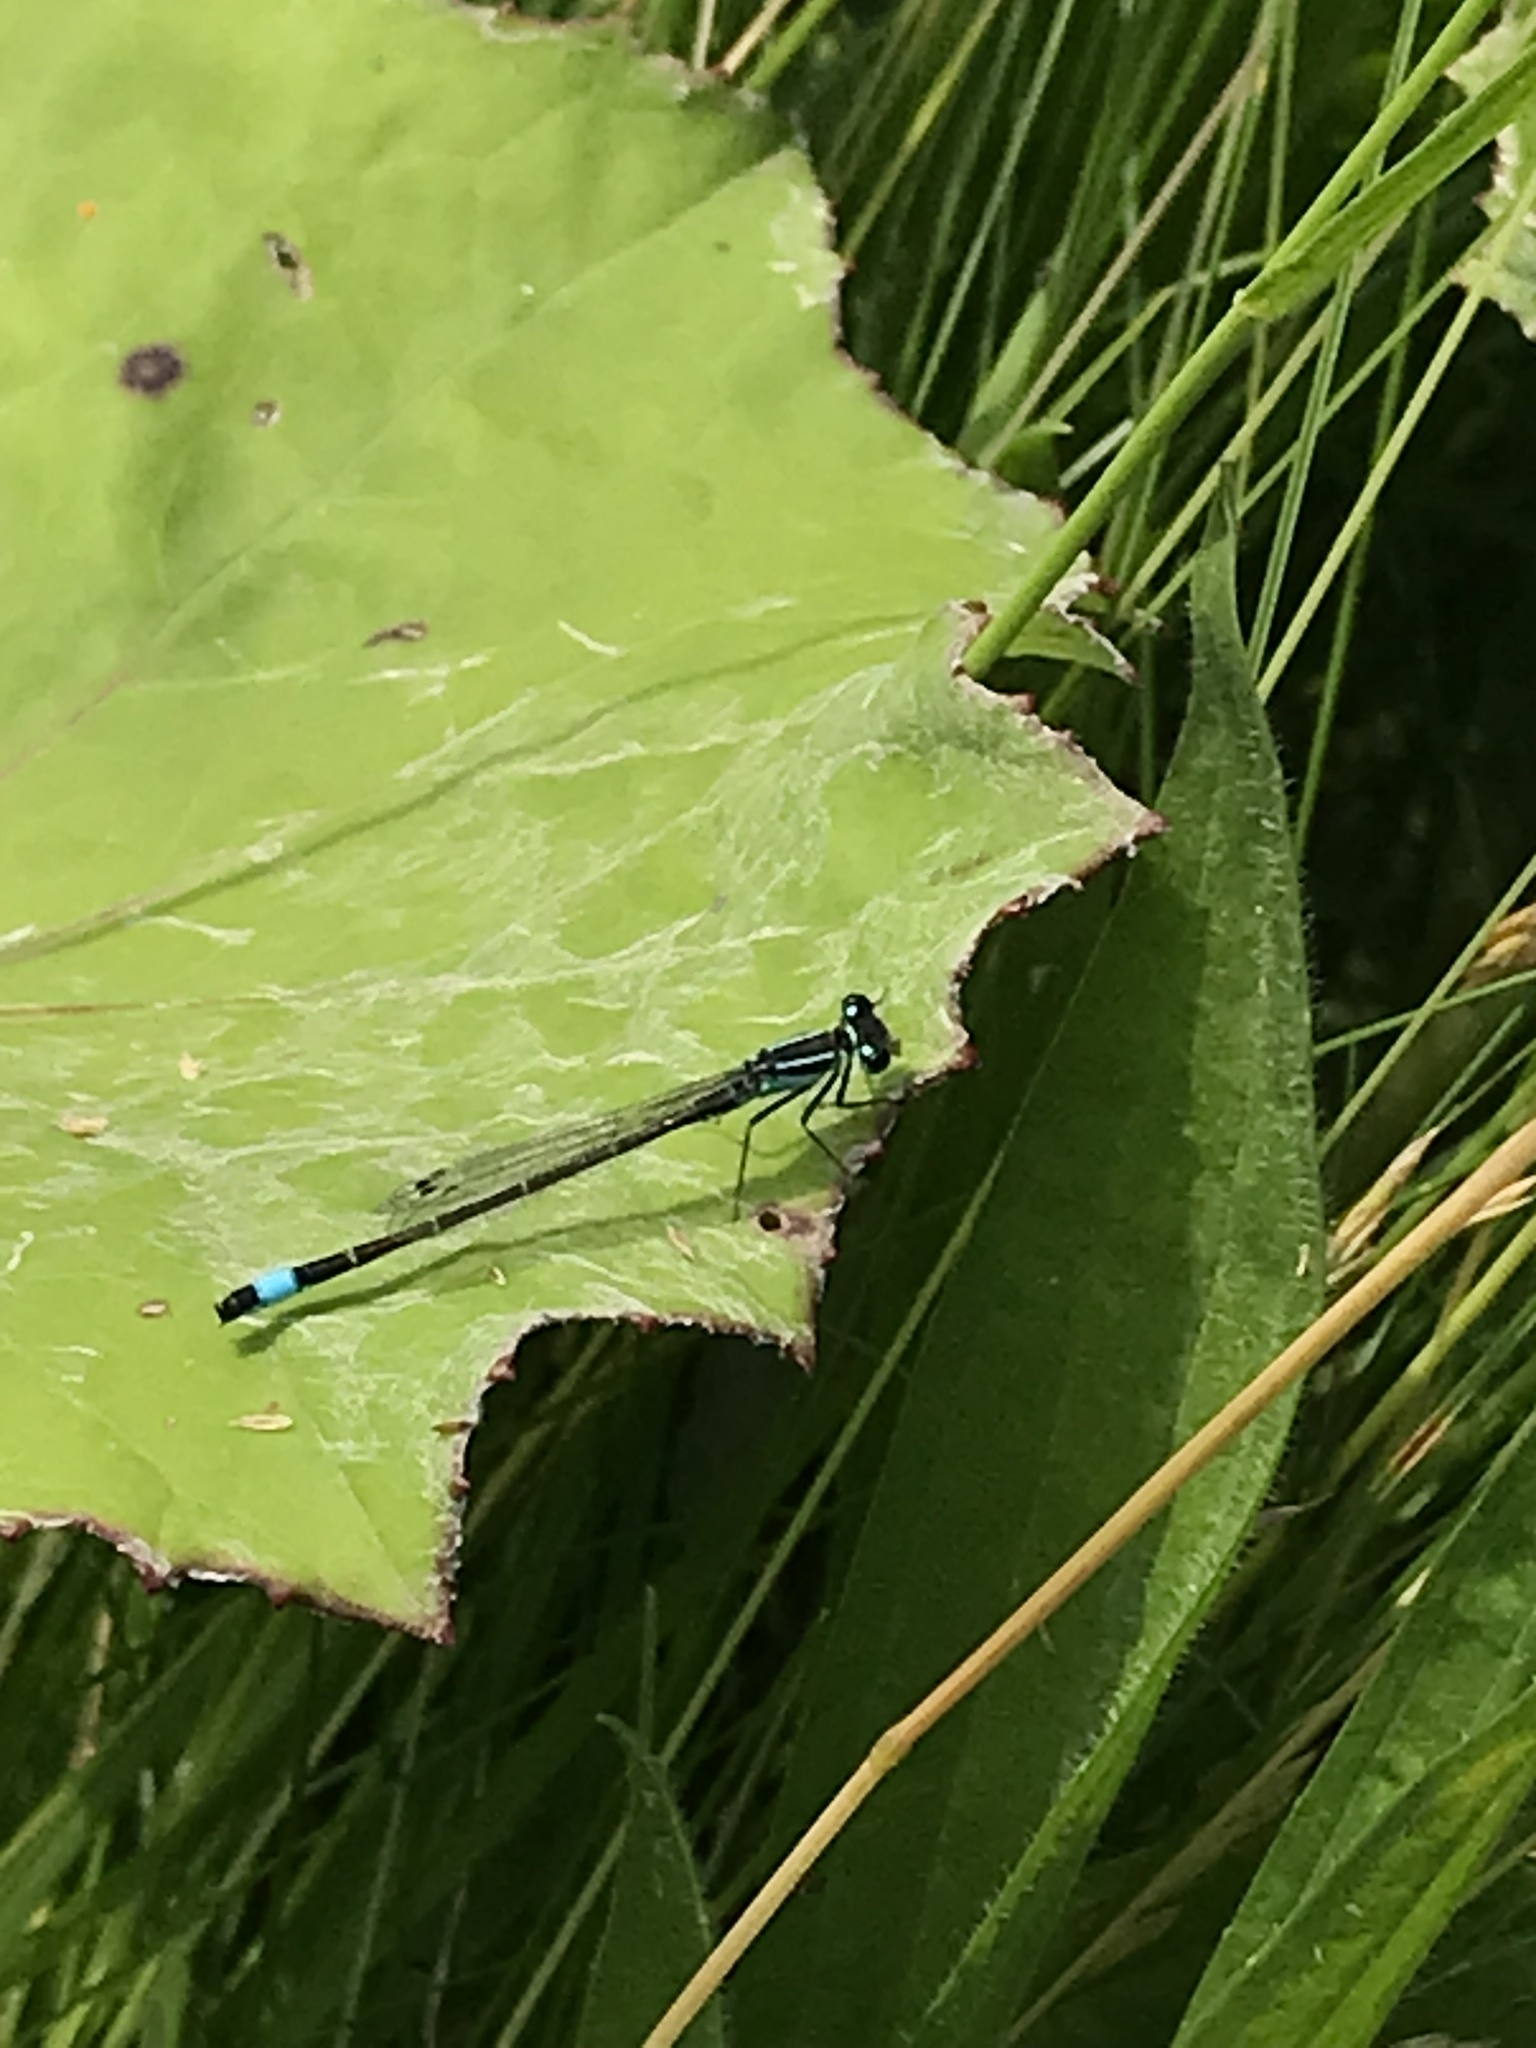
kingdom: Animalia
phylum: Arthropoda
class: Insecta
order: Odonata
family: Coenagrionidae
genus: Ischnura
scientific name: Ischnura elegans
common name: Blue-tailed damselfly
